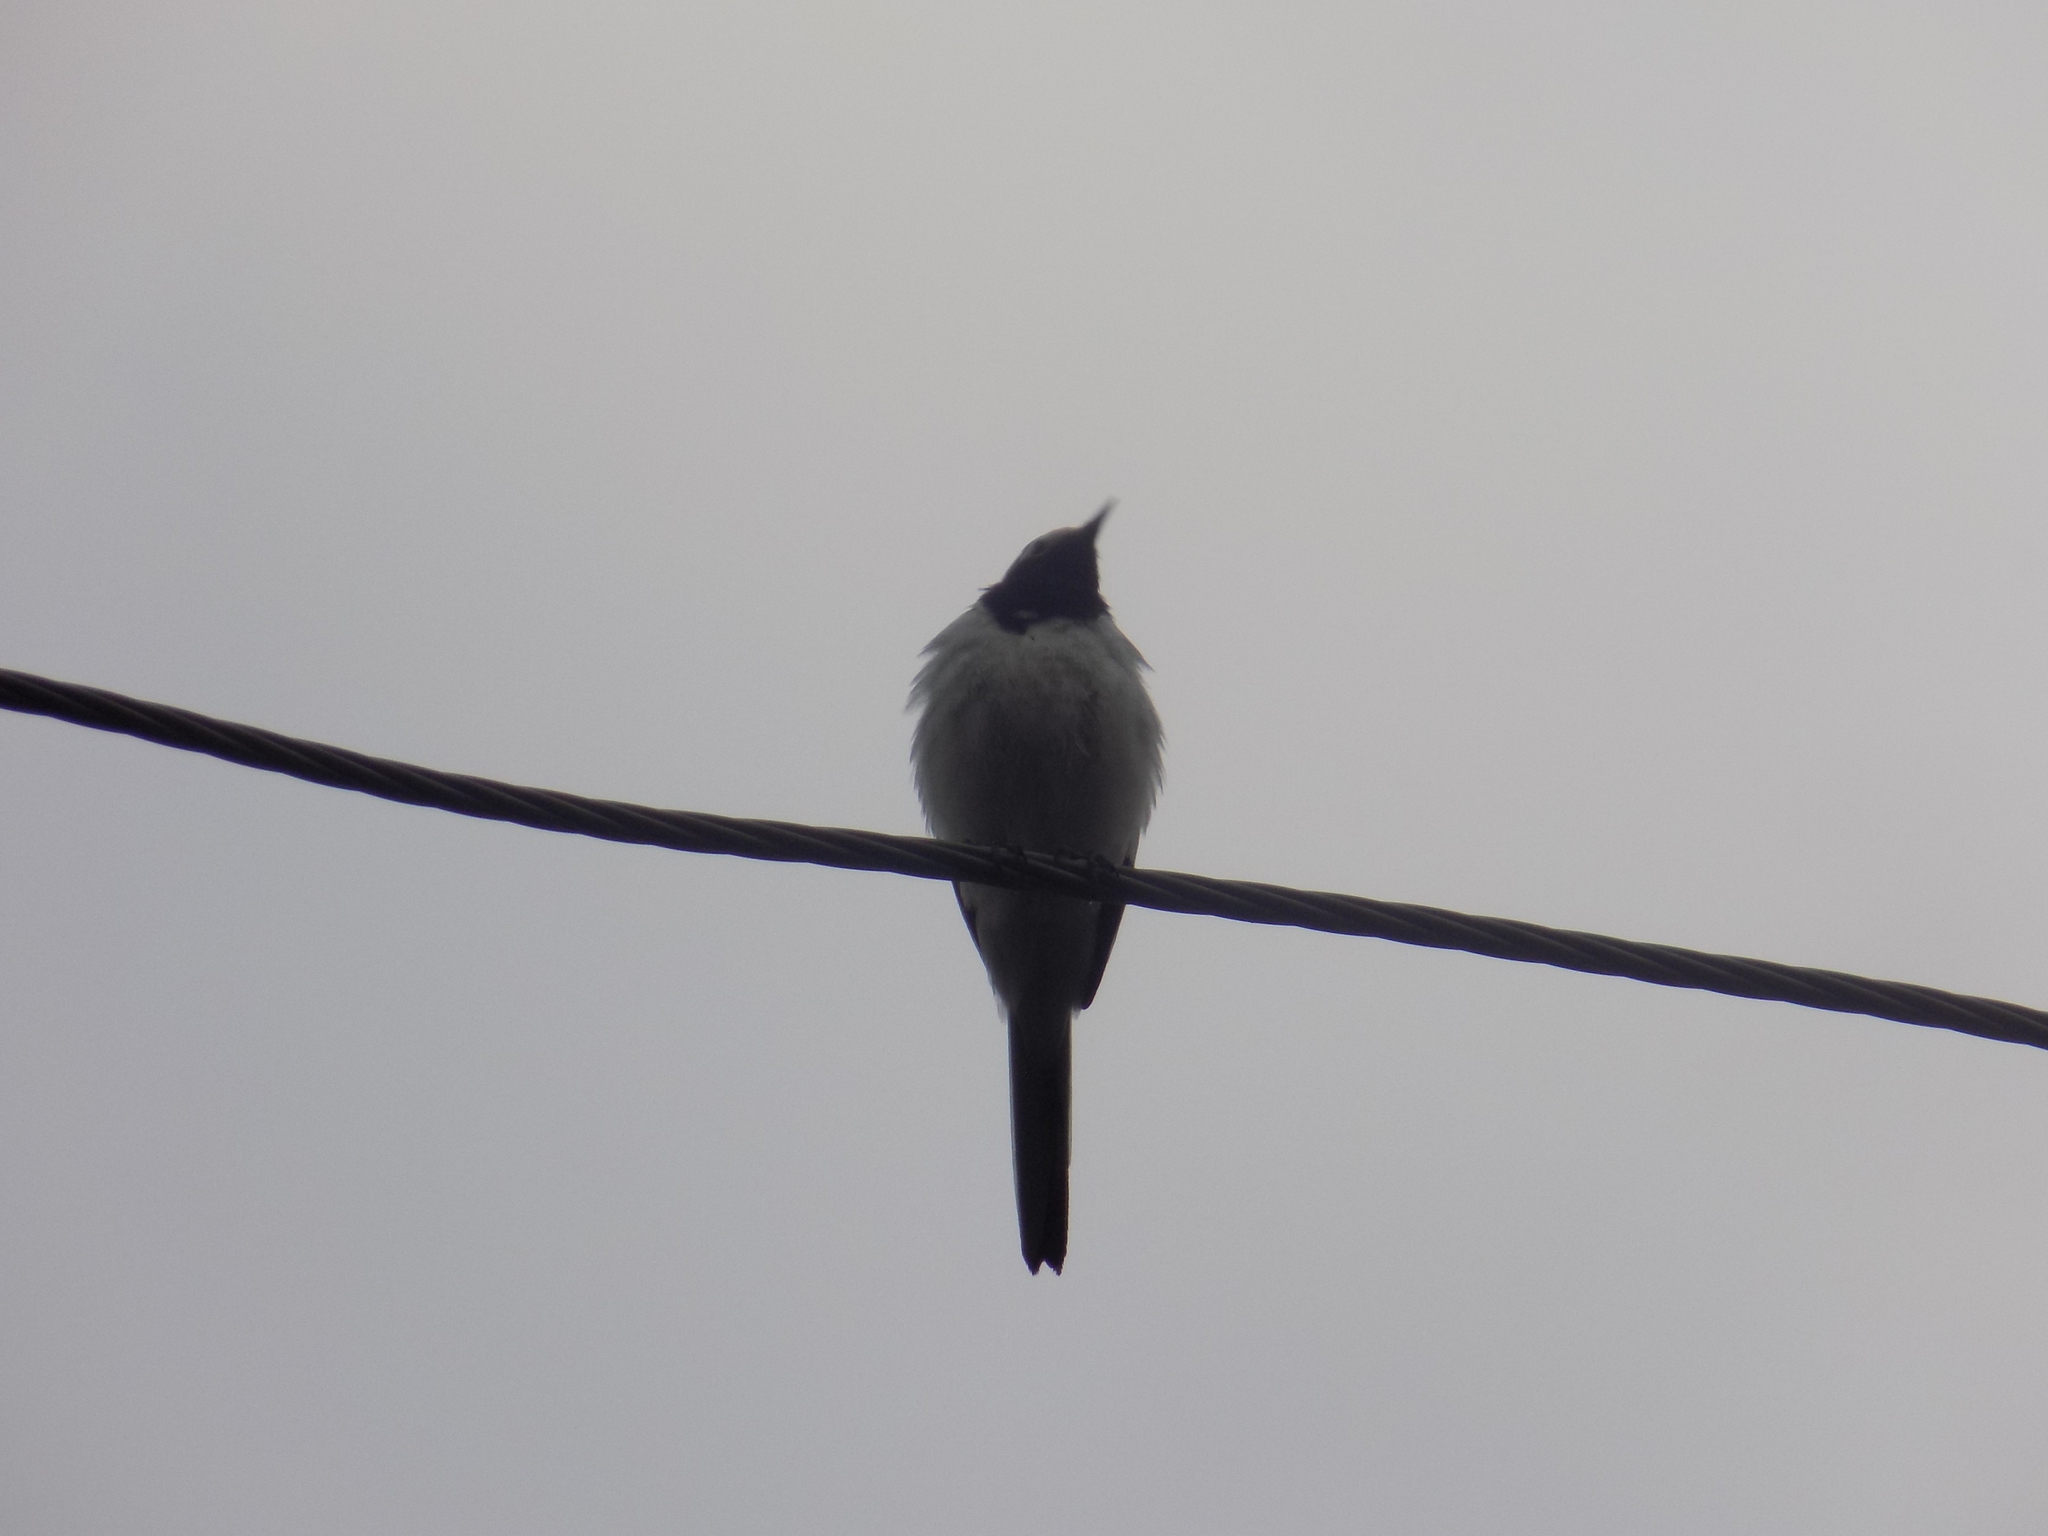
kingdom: Animalia
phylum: Chordata
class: Aves
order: Passeriformes
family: Motacillidae
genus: Motacilla
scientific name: Motacilla alba
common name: White wagtail
